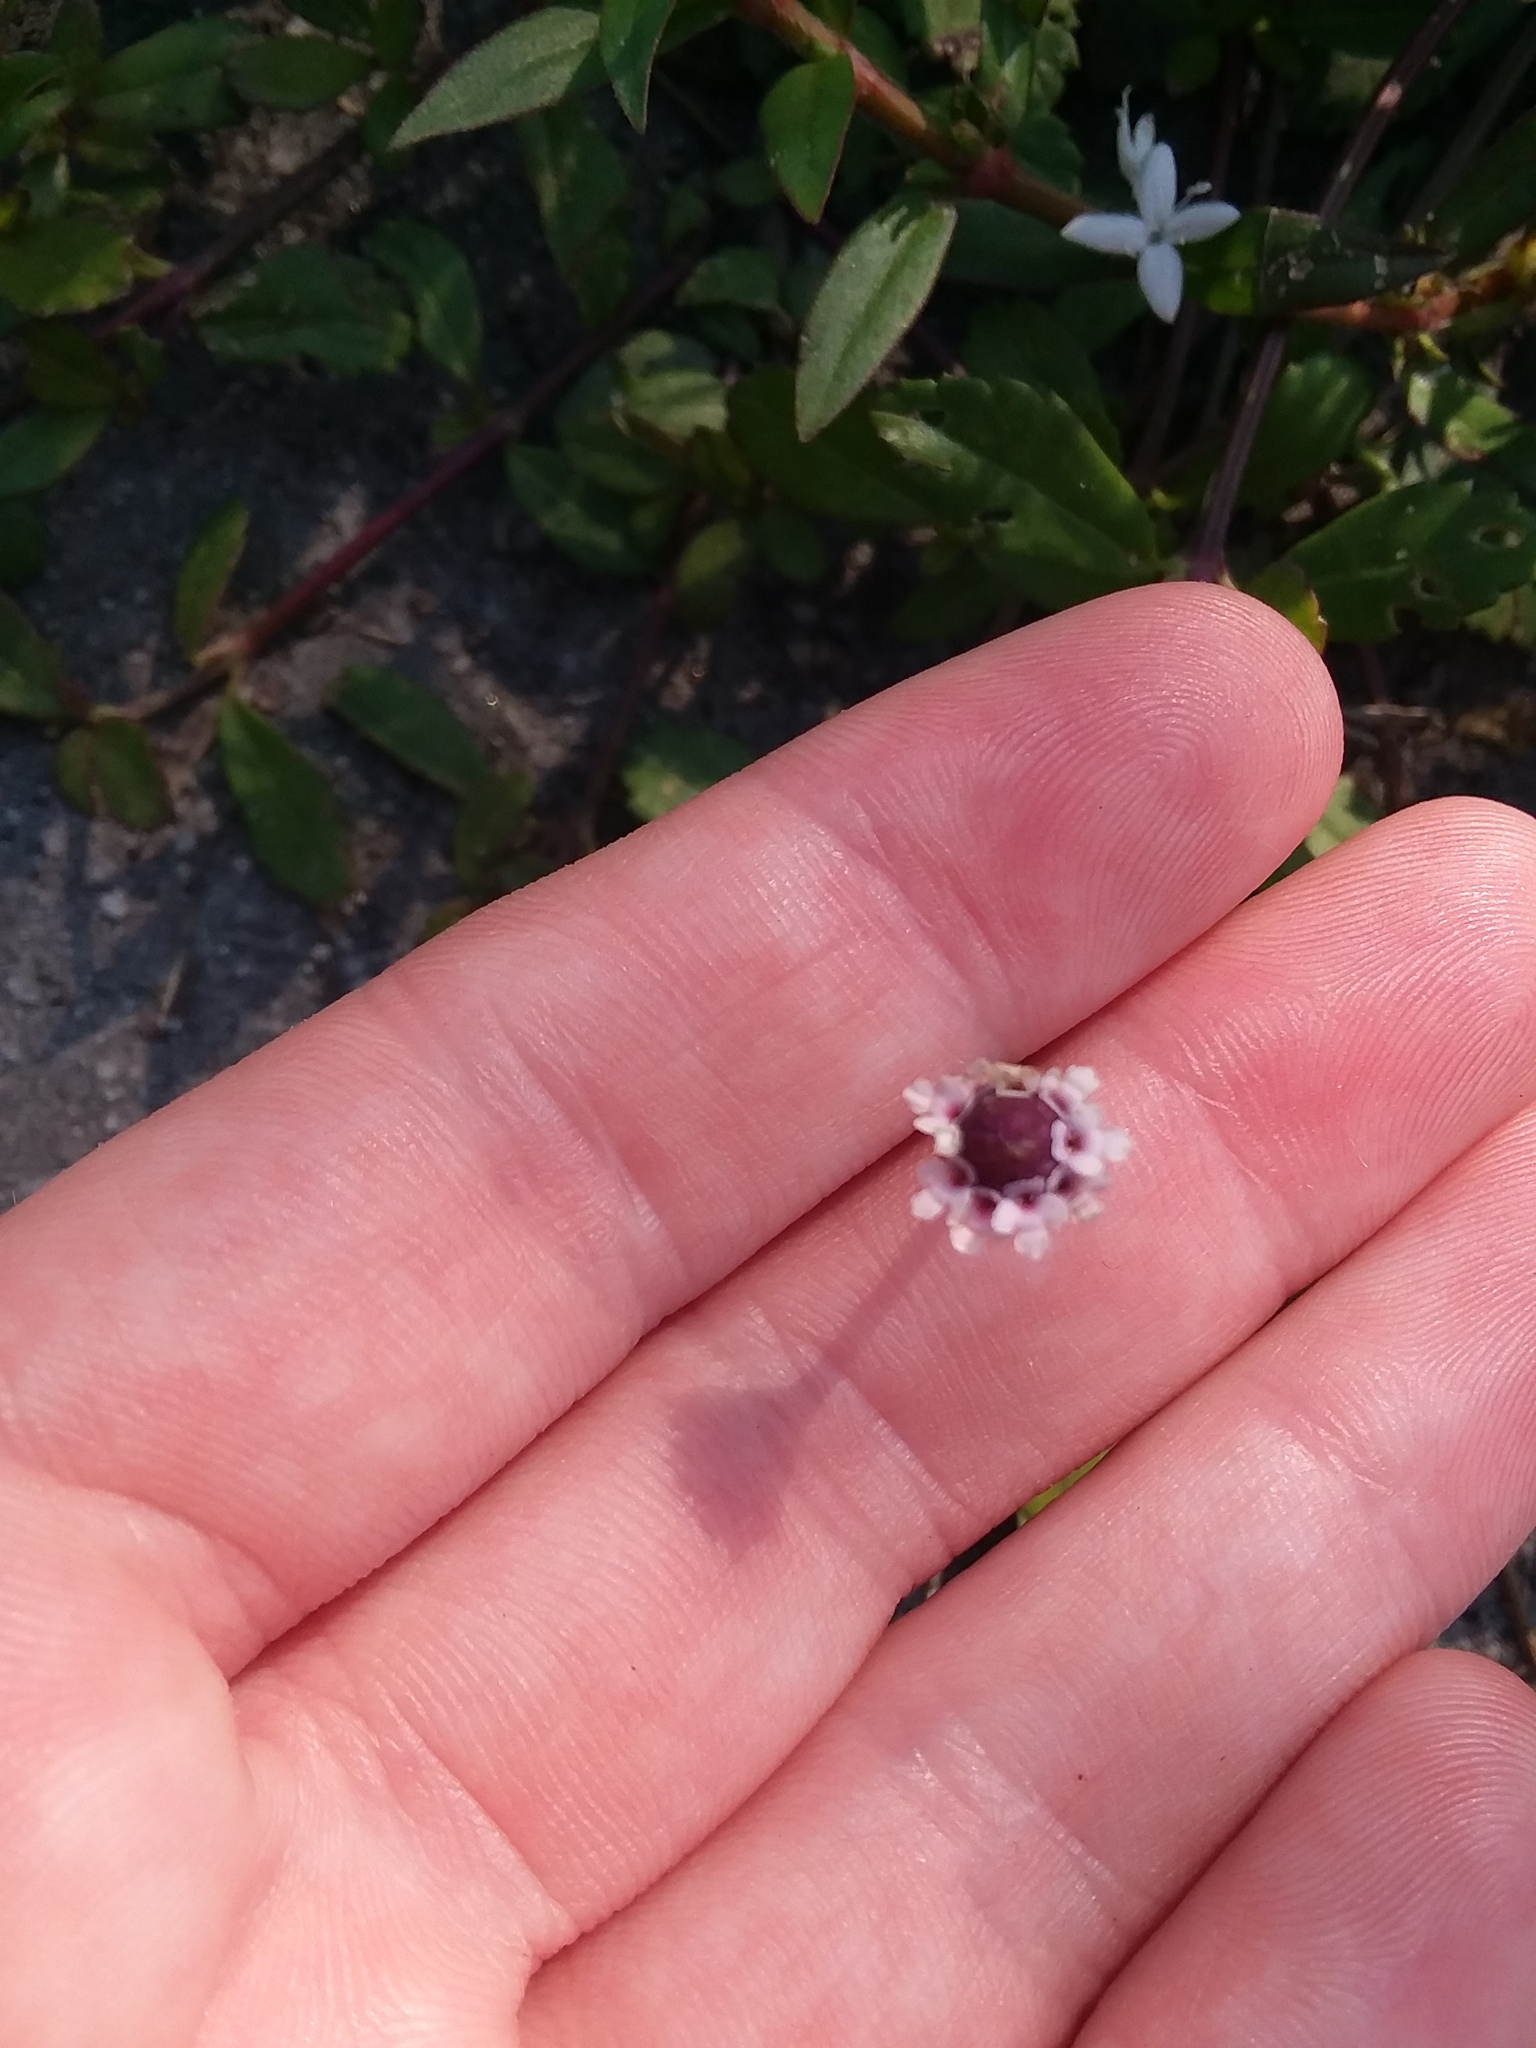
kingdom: Plantae
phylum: Tracheophyta
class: Magnoliopsida
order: Lamiales
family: Verbenaceae
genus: Phyla
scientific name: Phyla nodiflora
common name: Frogfruit
